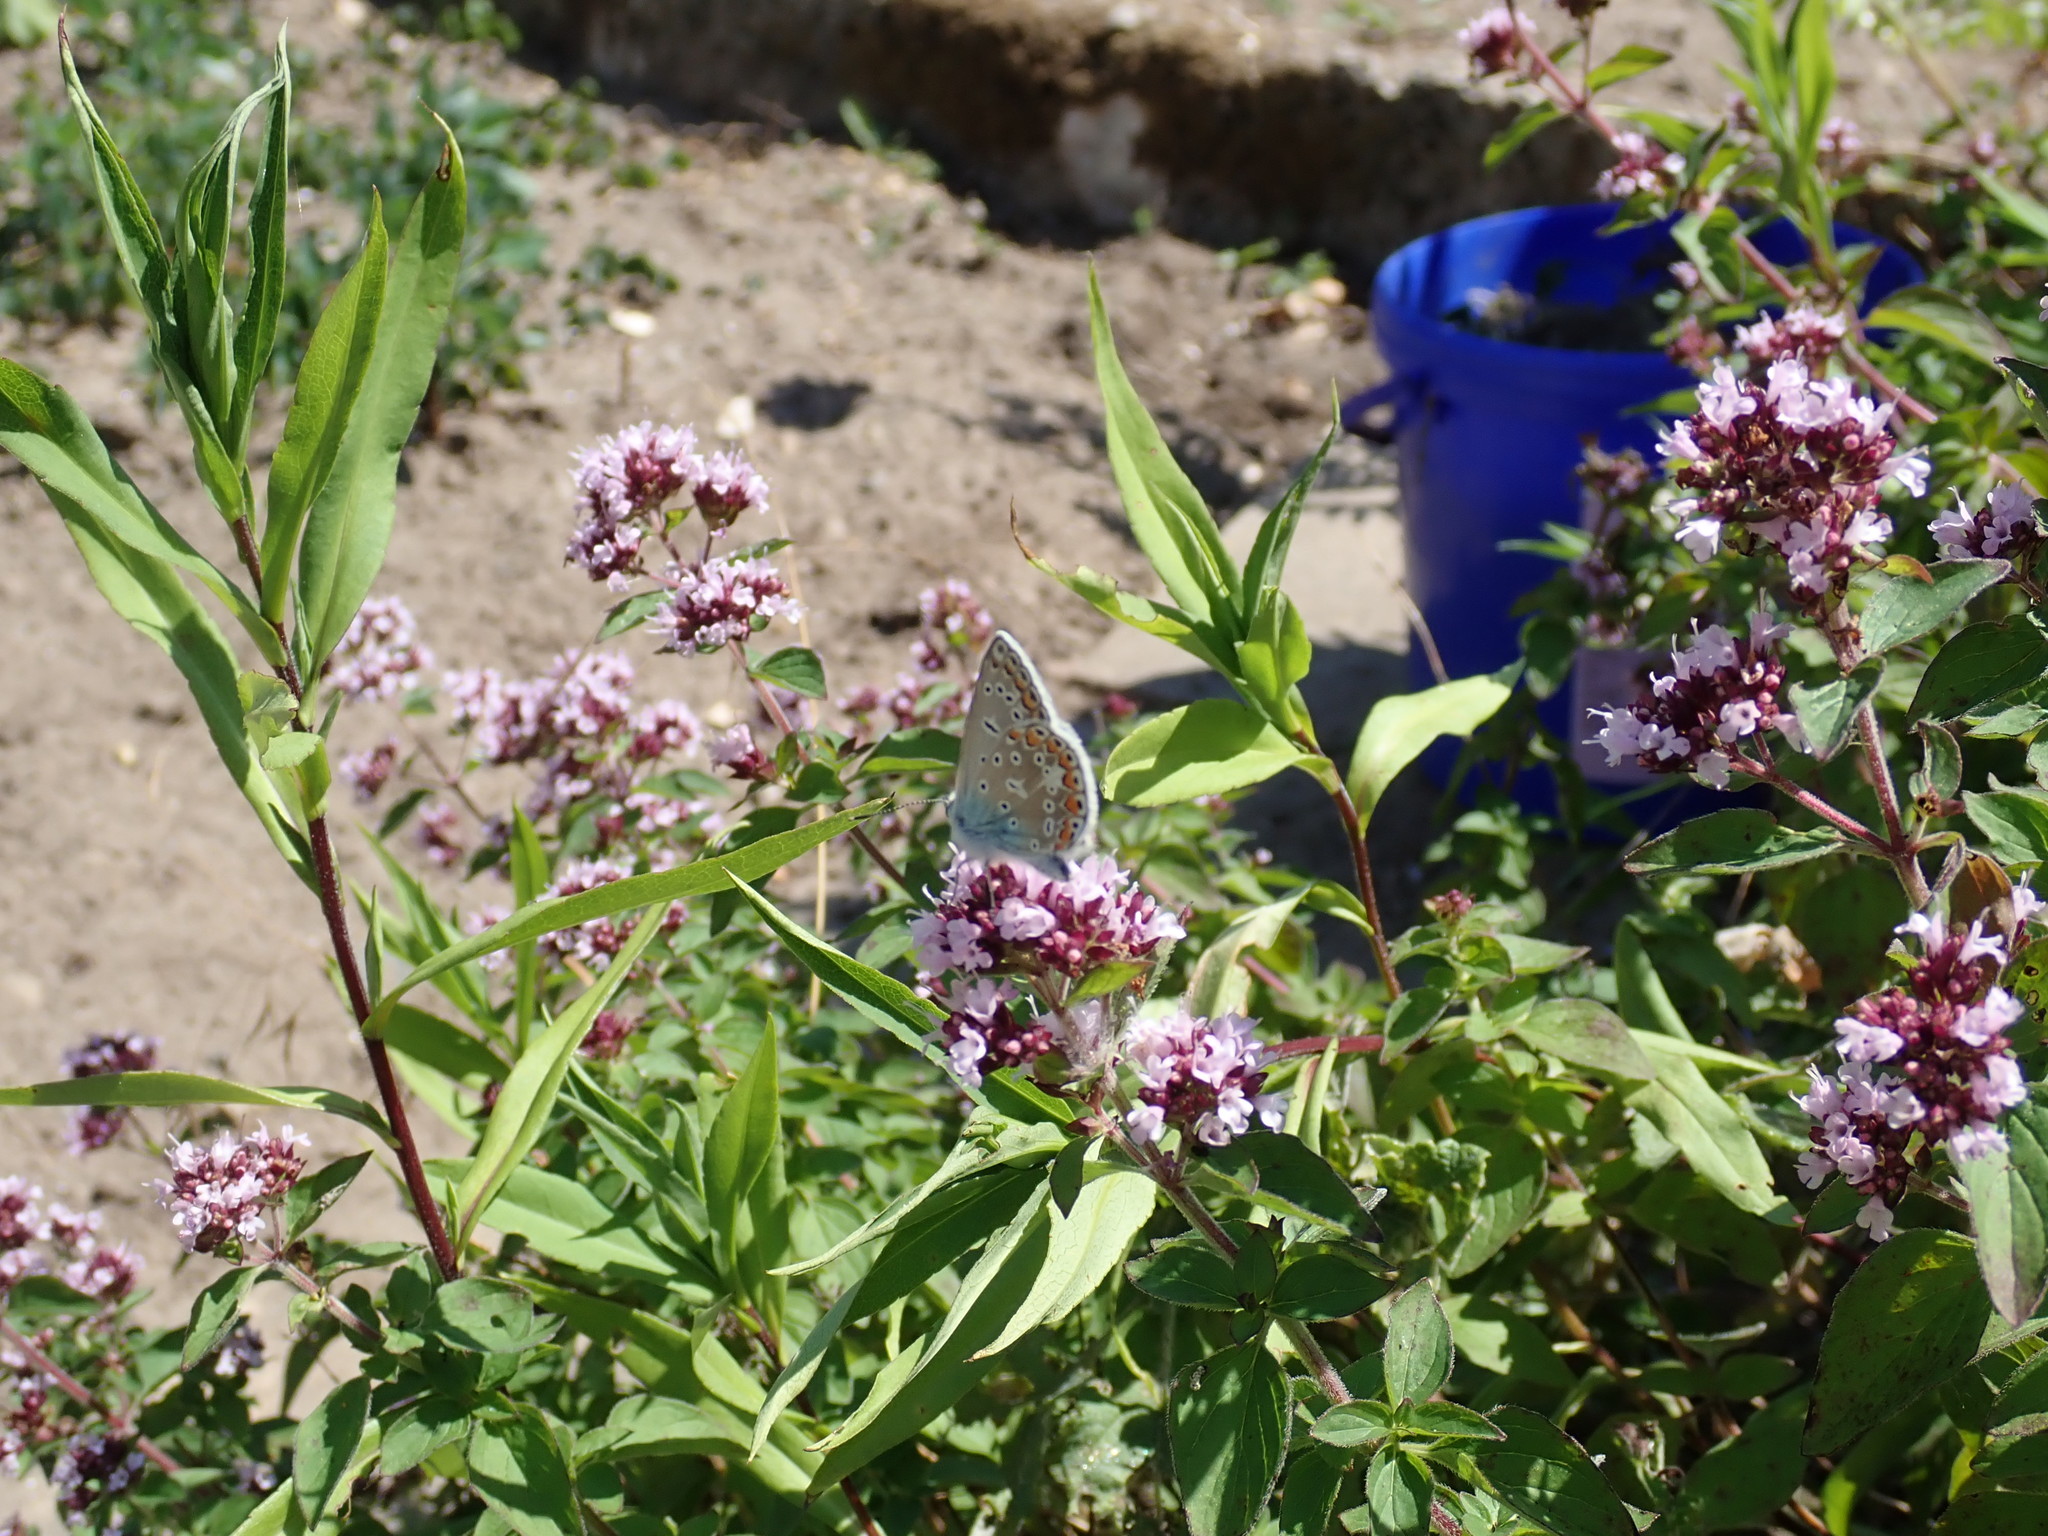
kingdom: Animalia
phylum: Arthropoda
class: Insecta
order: Lepidoptera
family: Lycaenidae
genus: Polyommatus
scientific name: Polyommatus icarus
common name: Common blue
